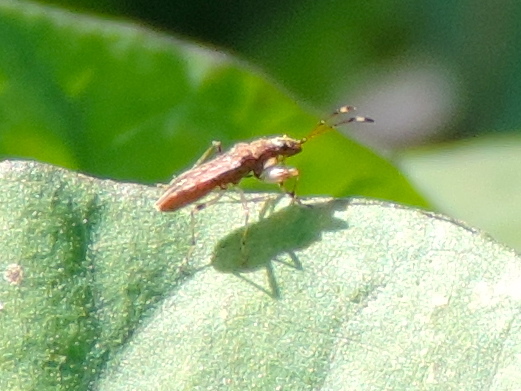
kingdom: Animalia
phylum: Arthropoda
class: Insecta
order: Hemiptera
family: Rhyparochromidae
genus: Neopamera
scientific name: Neopamera albocincta
